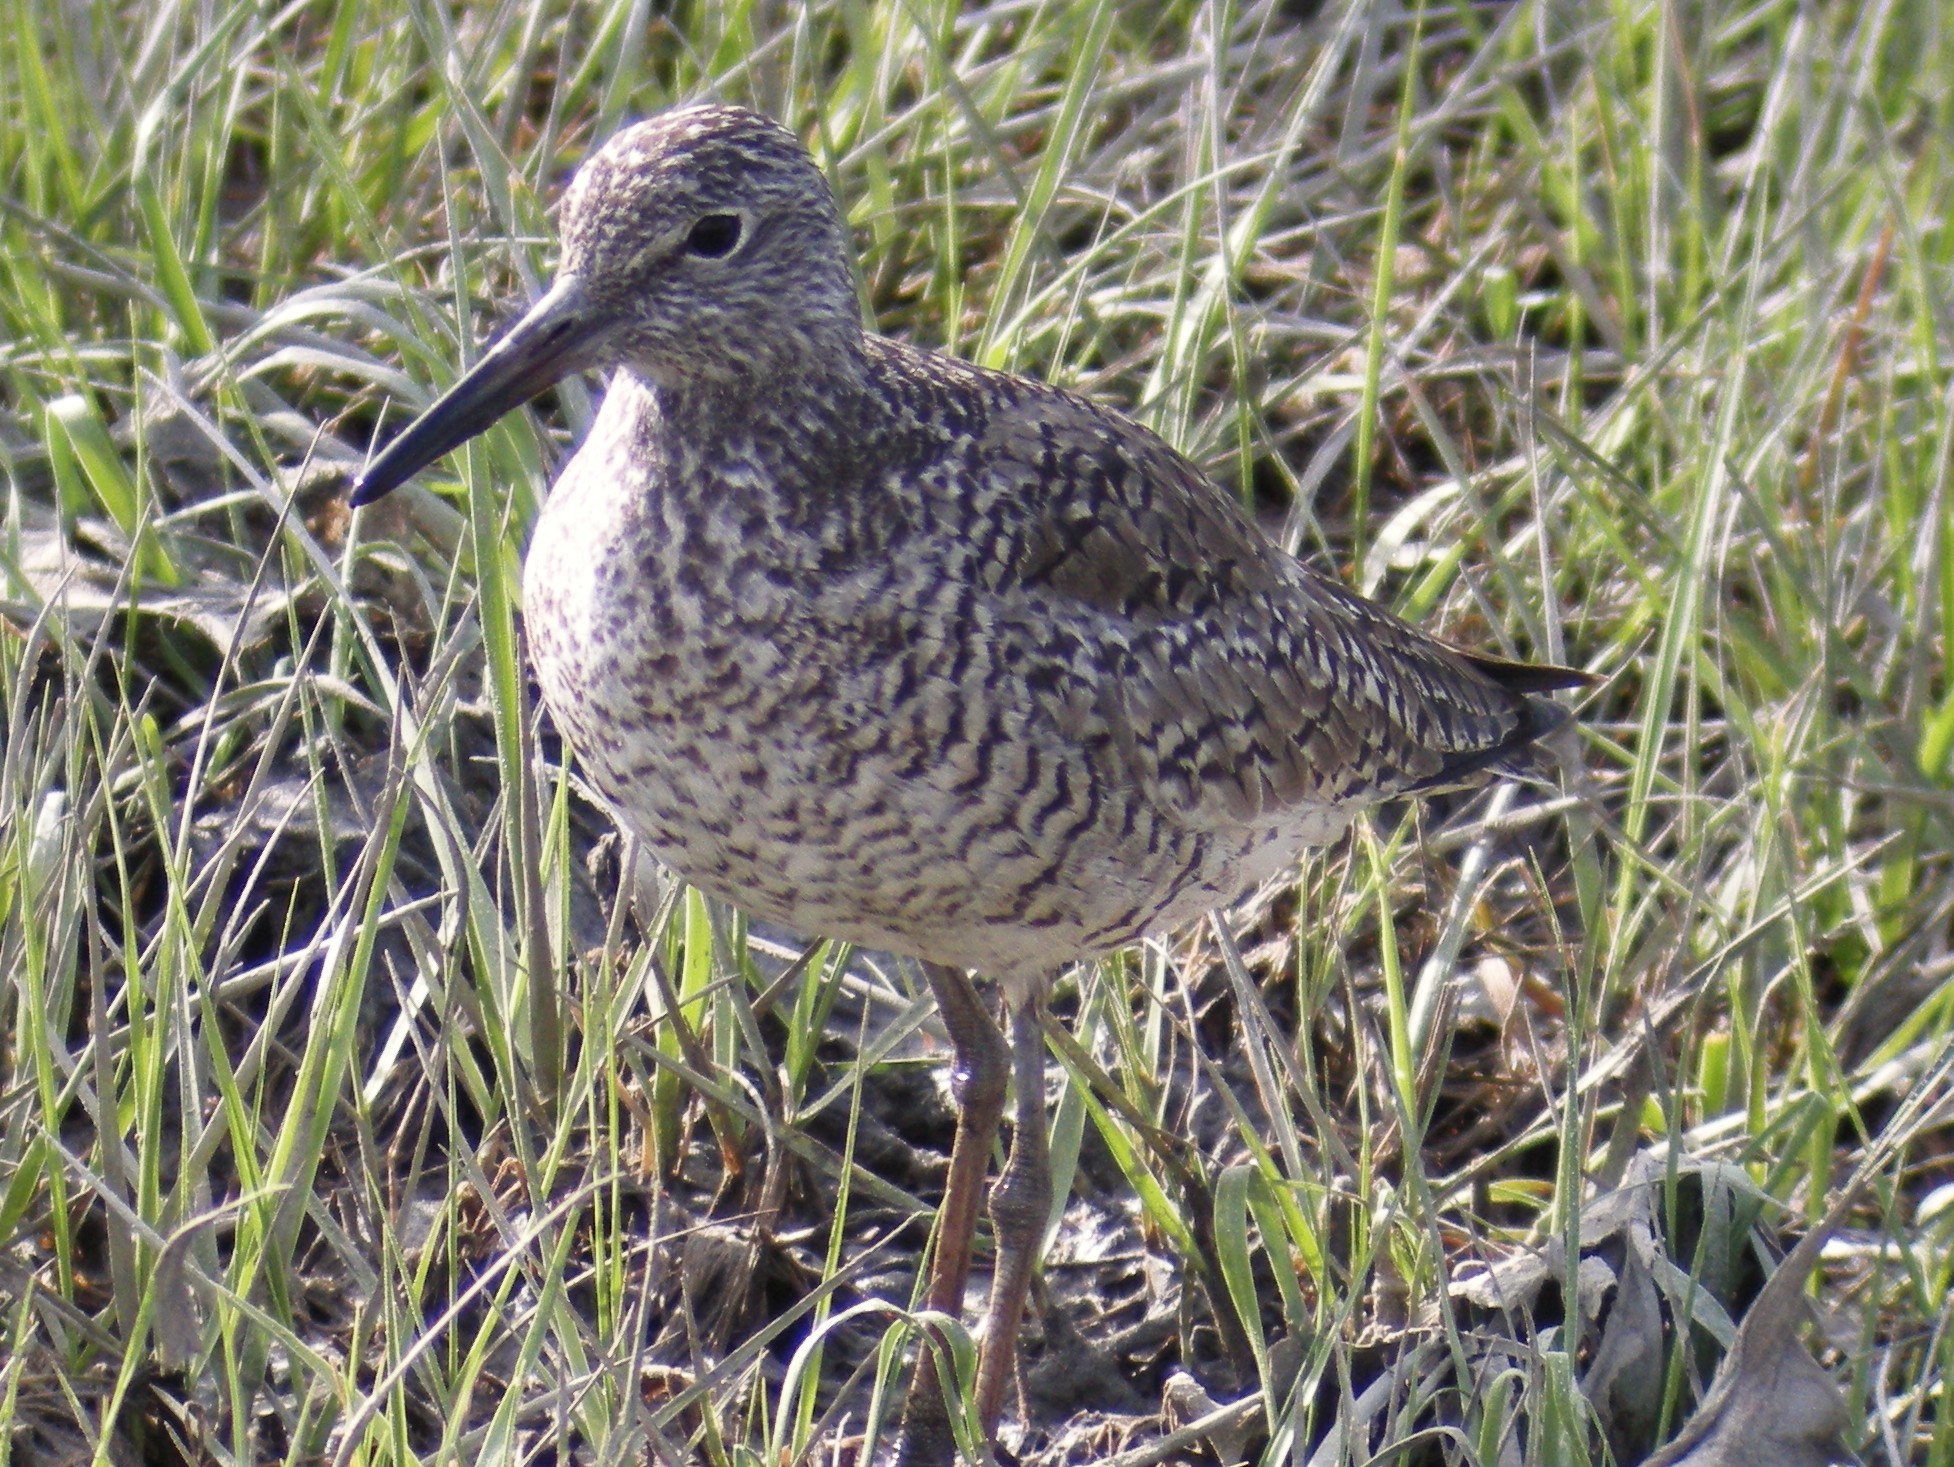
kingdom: Animalia
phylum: Chordata
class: Aves
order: Charadriiformes
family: Scolopacidae
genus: Tringa
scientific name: Tringa semipalmata
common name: Willet
